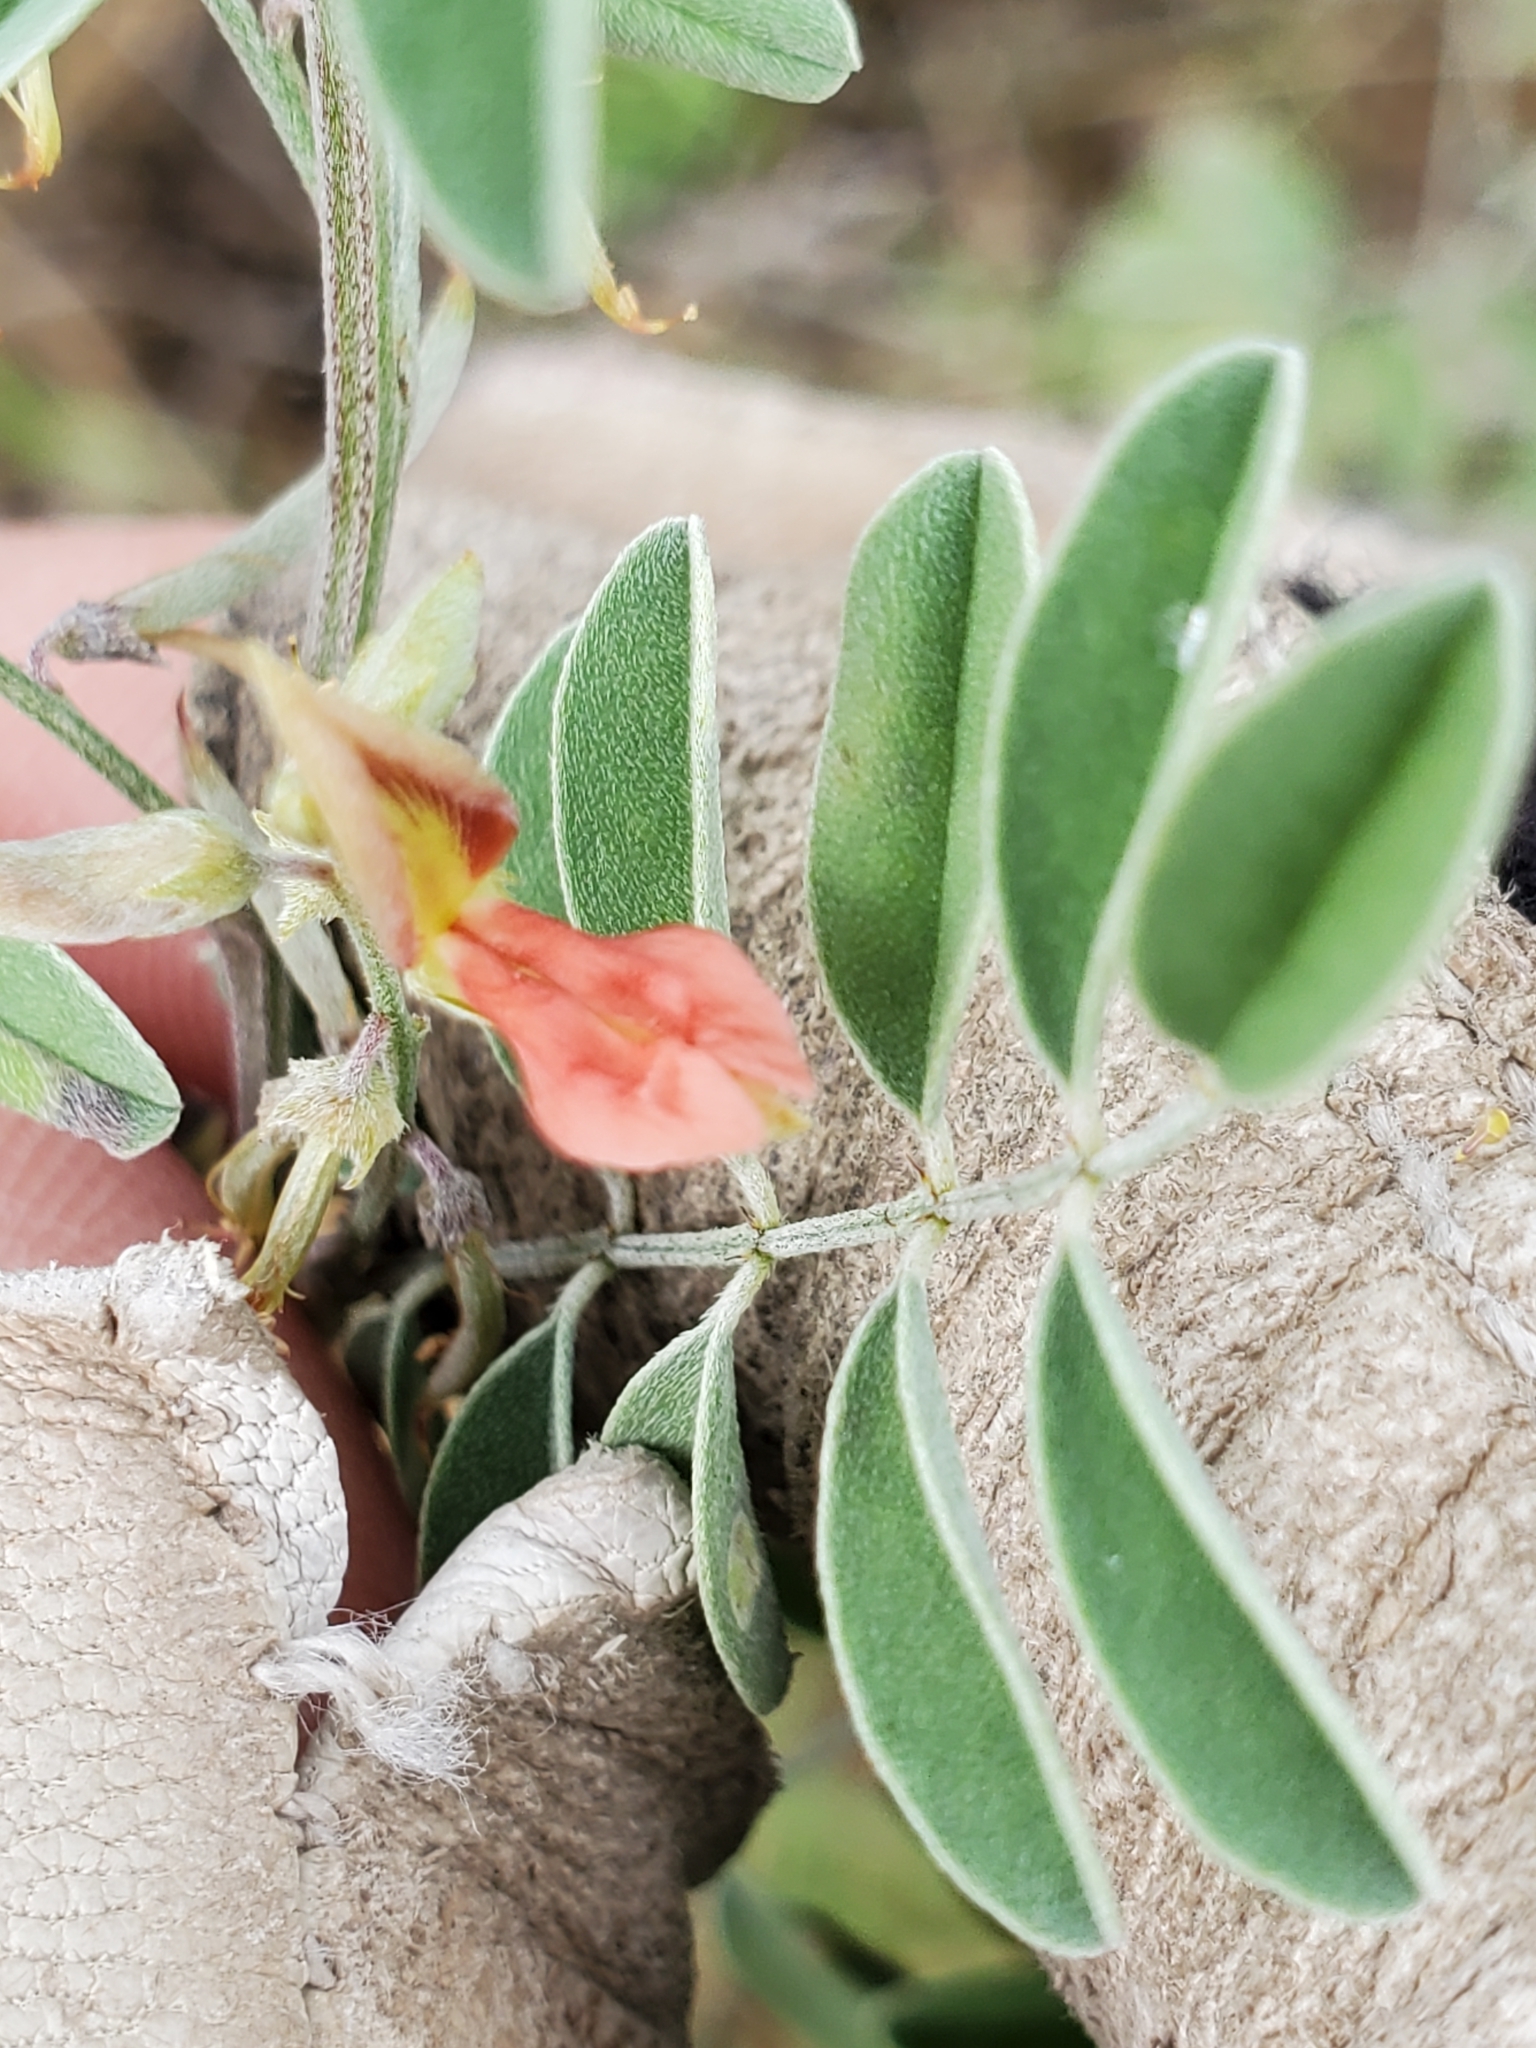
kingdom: Plantae
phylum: Tracheophyta
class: Magnoliopsida
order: Fabales
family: Fabaceae
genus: Indigofera
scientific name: Indigofera lindheimeriana
